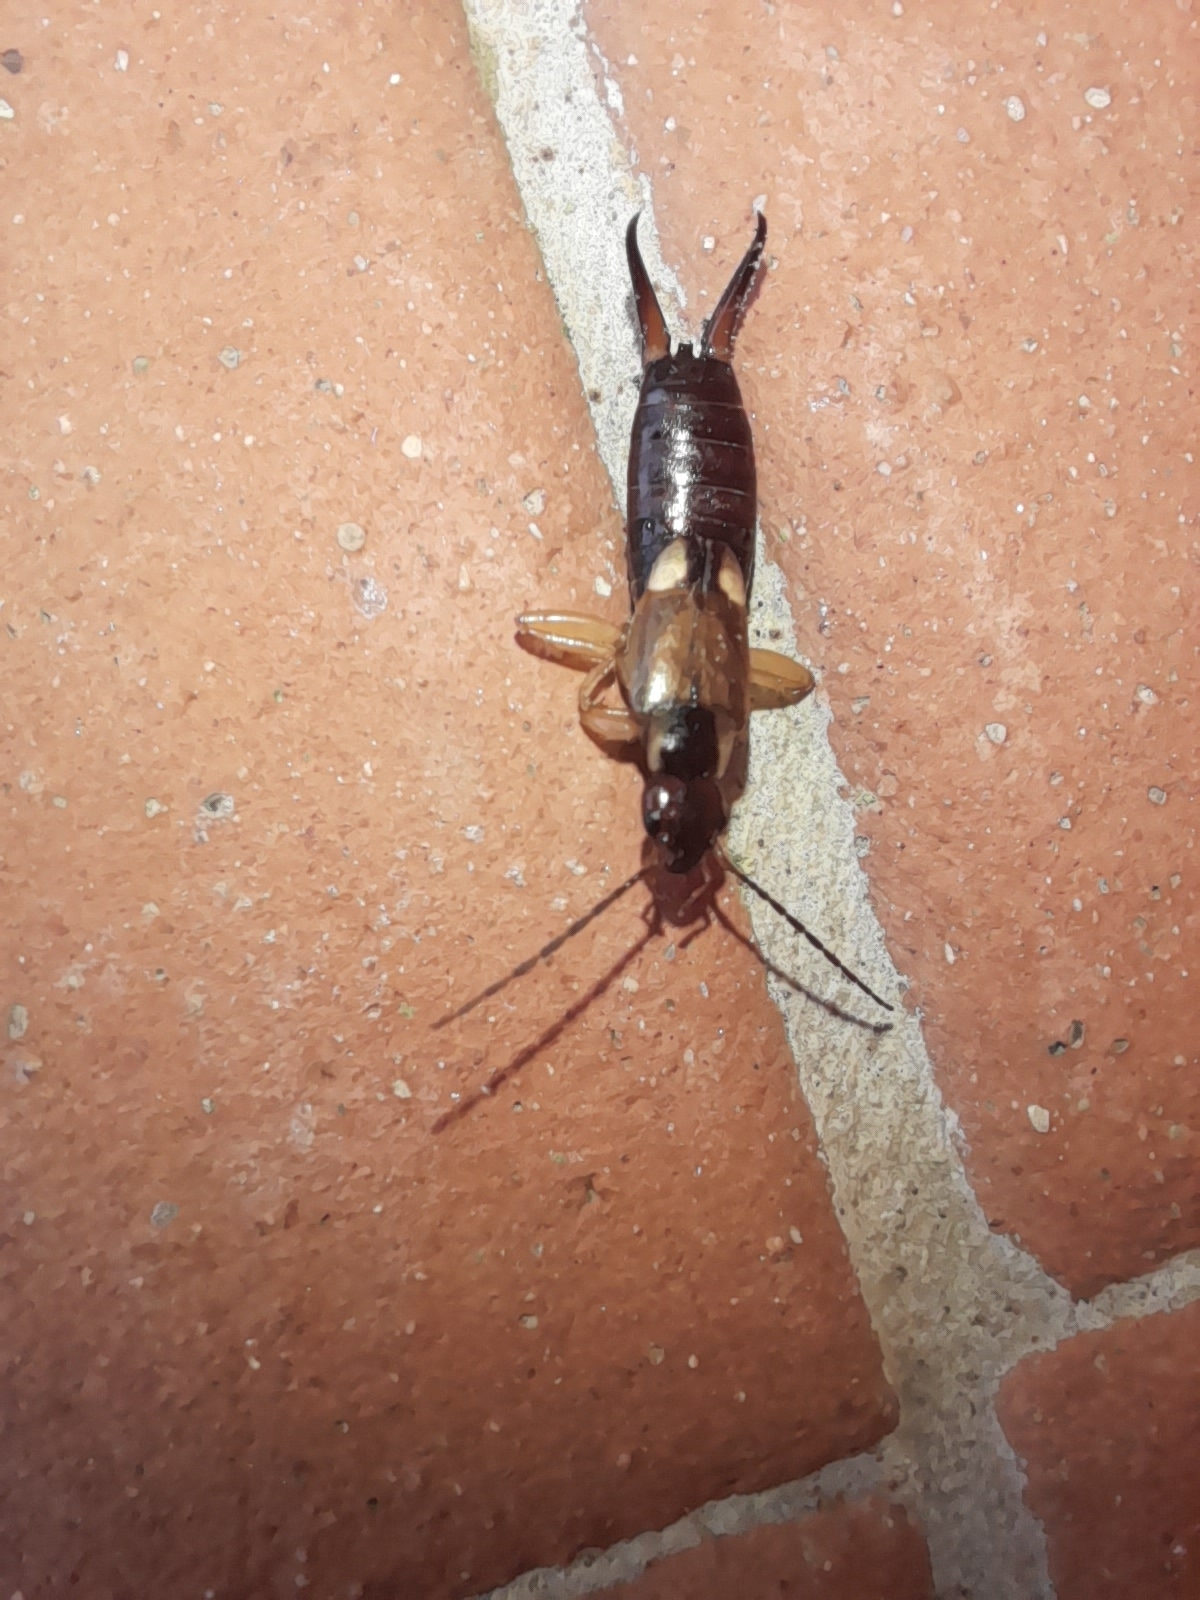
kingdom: Animalia
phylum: Arthropoda
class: Insecta
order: Dermaptera
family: Forficulidae
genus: Forficula
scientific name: Forficula
